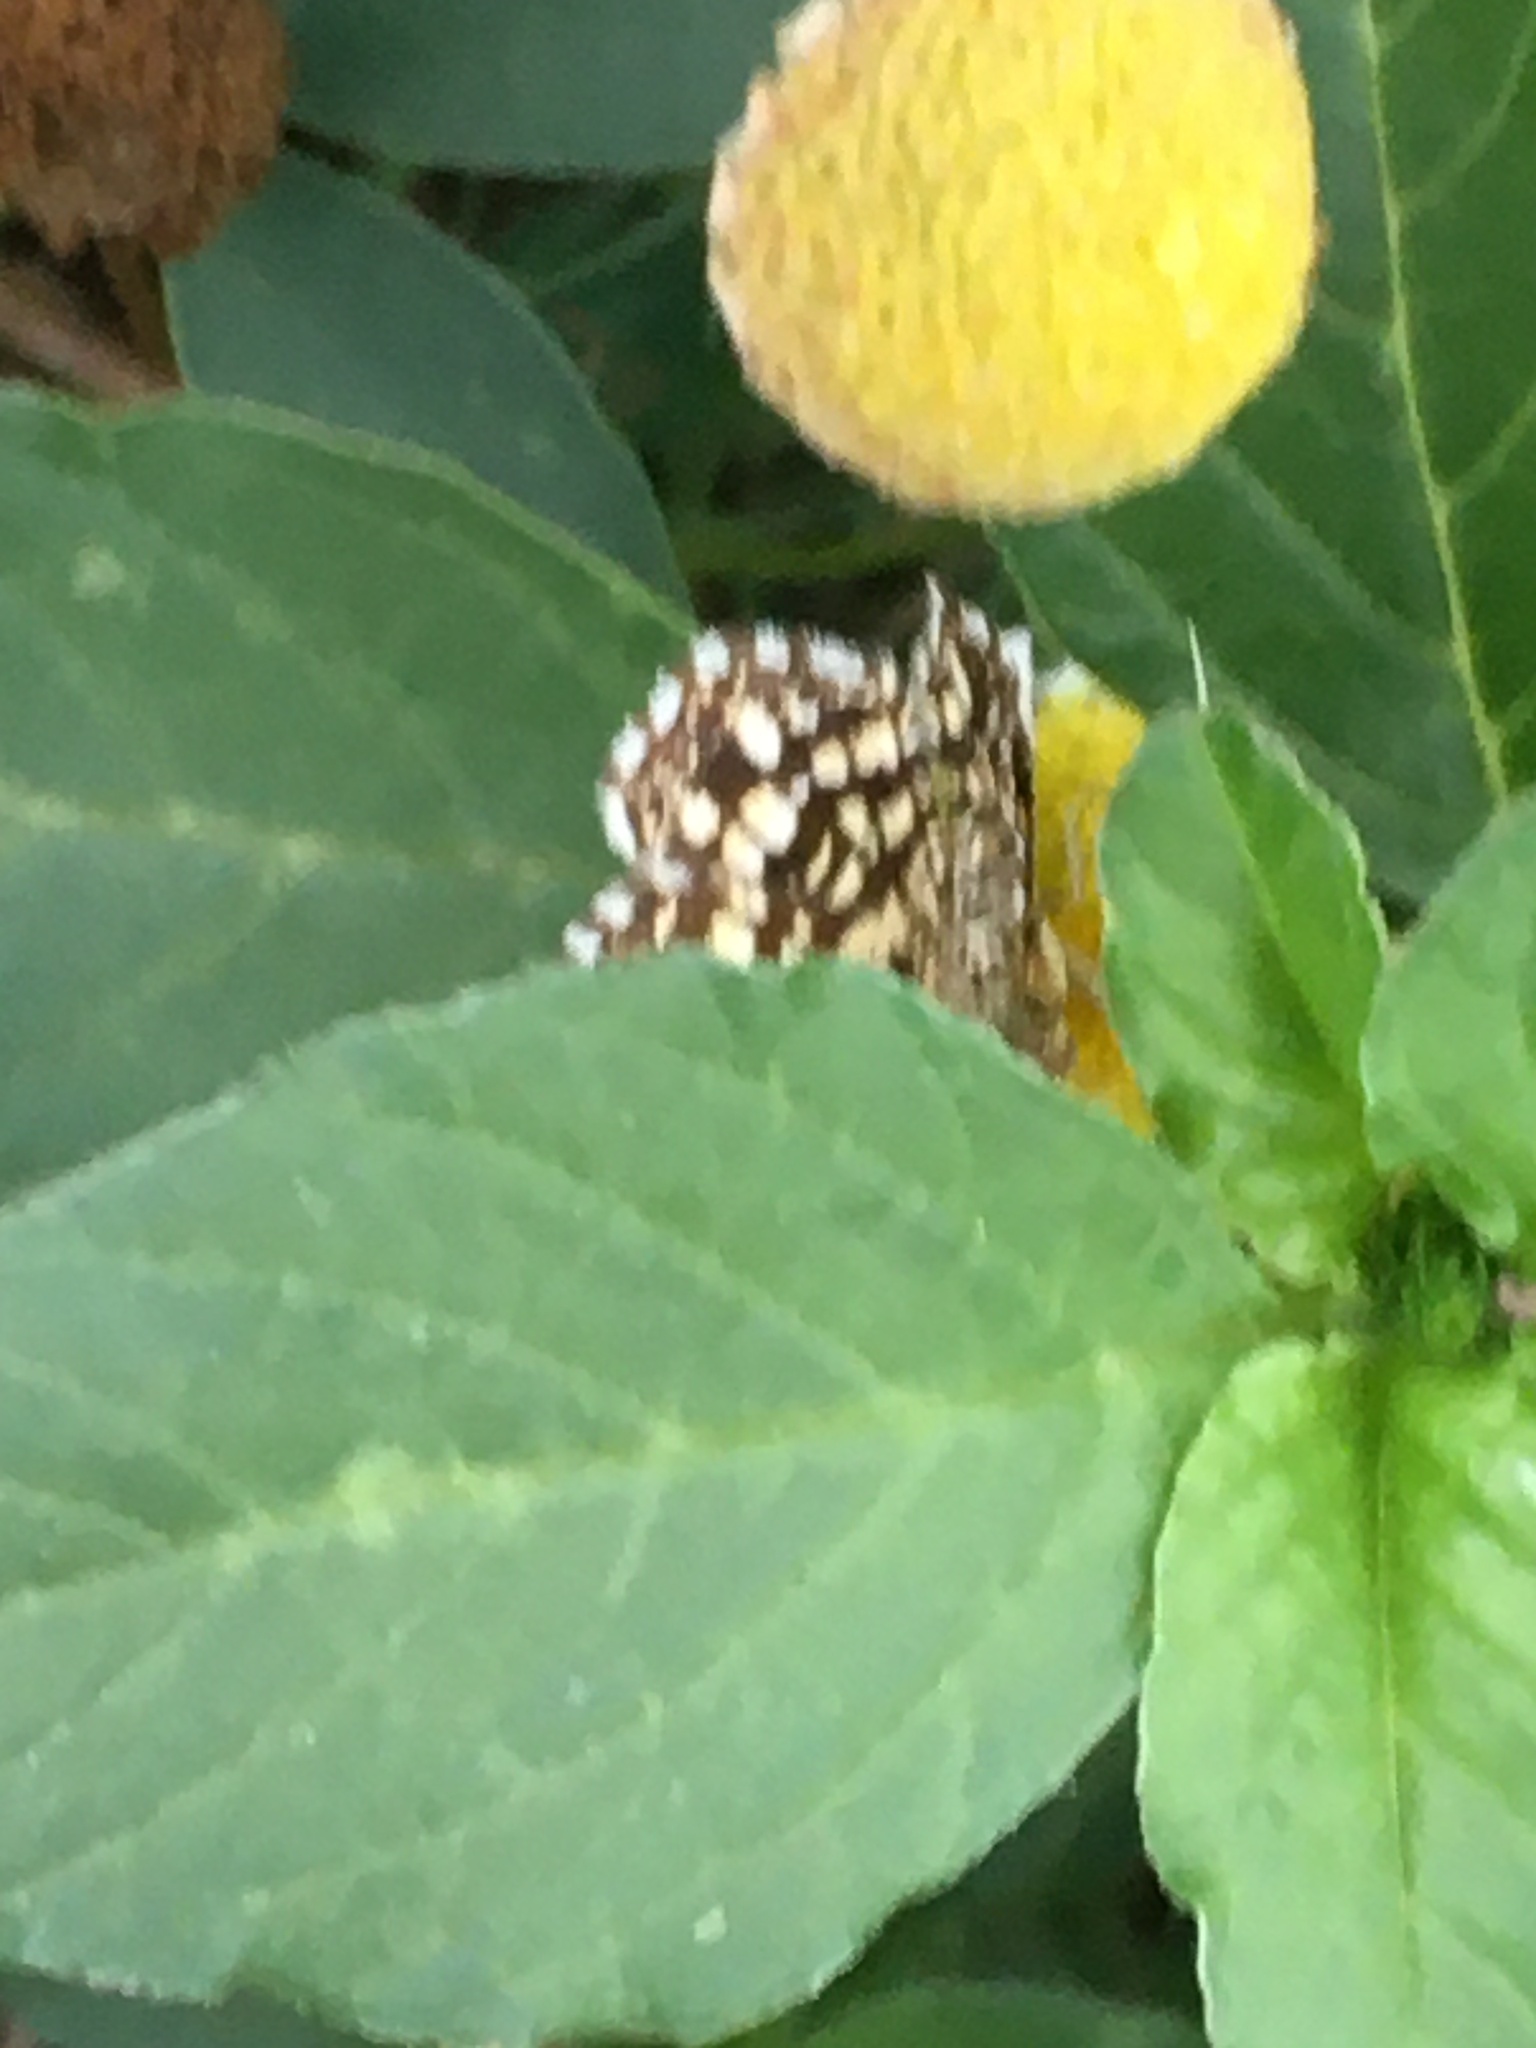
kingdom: Animalia
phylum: Arthropoda
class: Insecta
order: Lepidoptera
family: Geometridae
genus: Chiasmia
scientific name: Chiasmia clathrata
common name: Latticed heath
